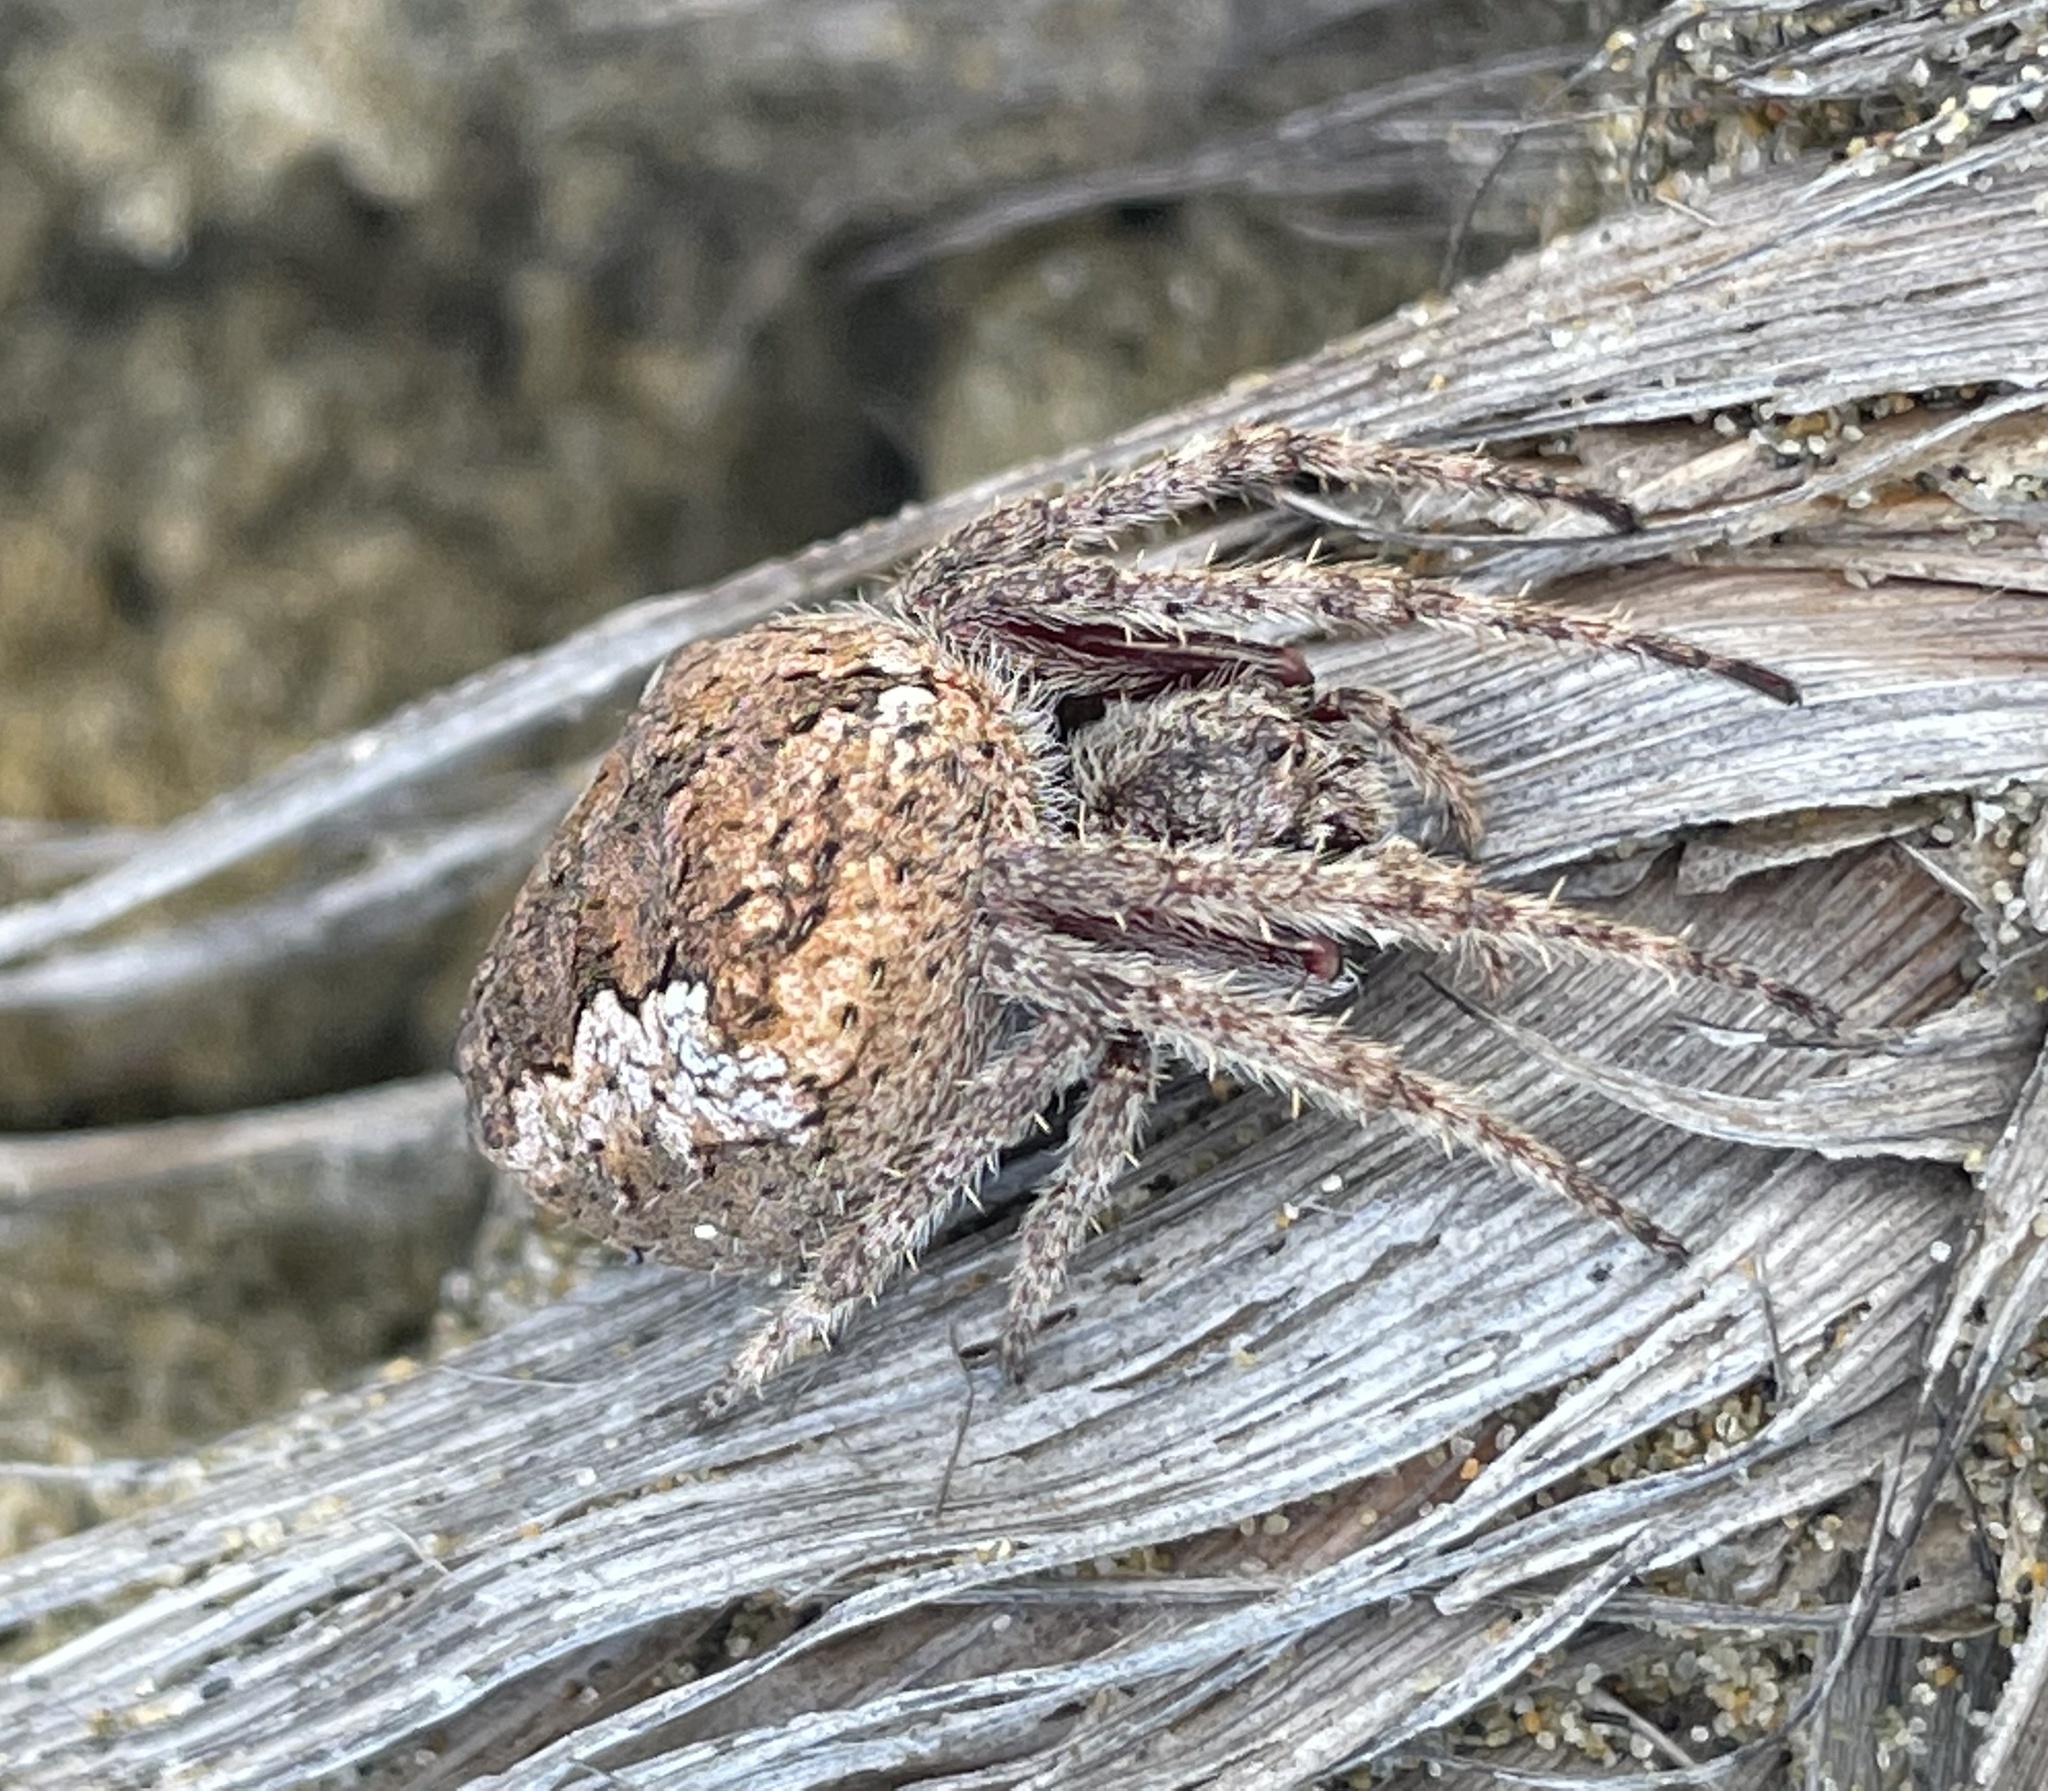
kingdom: Animalia
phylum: Arthropoda
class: Arachnida
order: Araneae
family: Araneidae
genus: Eriophora
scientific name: Eriophora pustulosa
